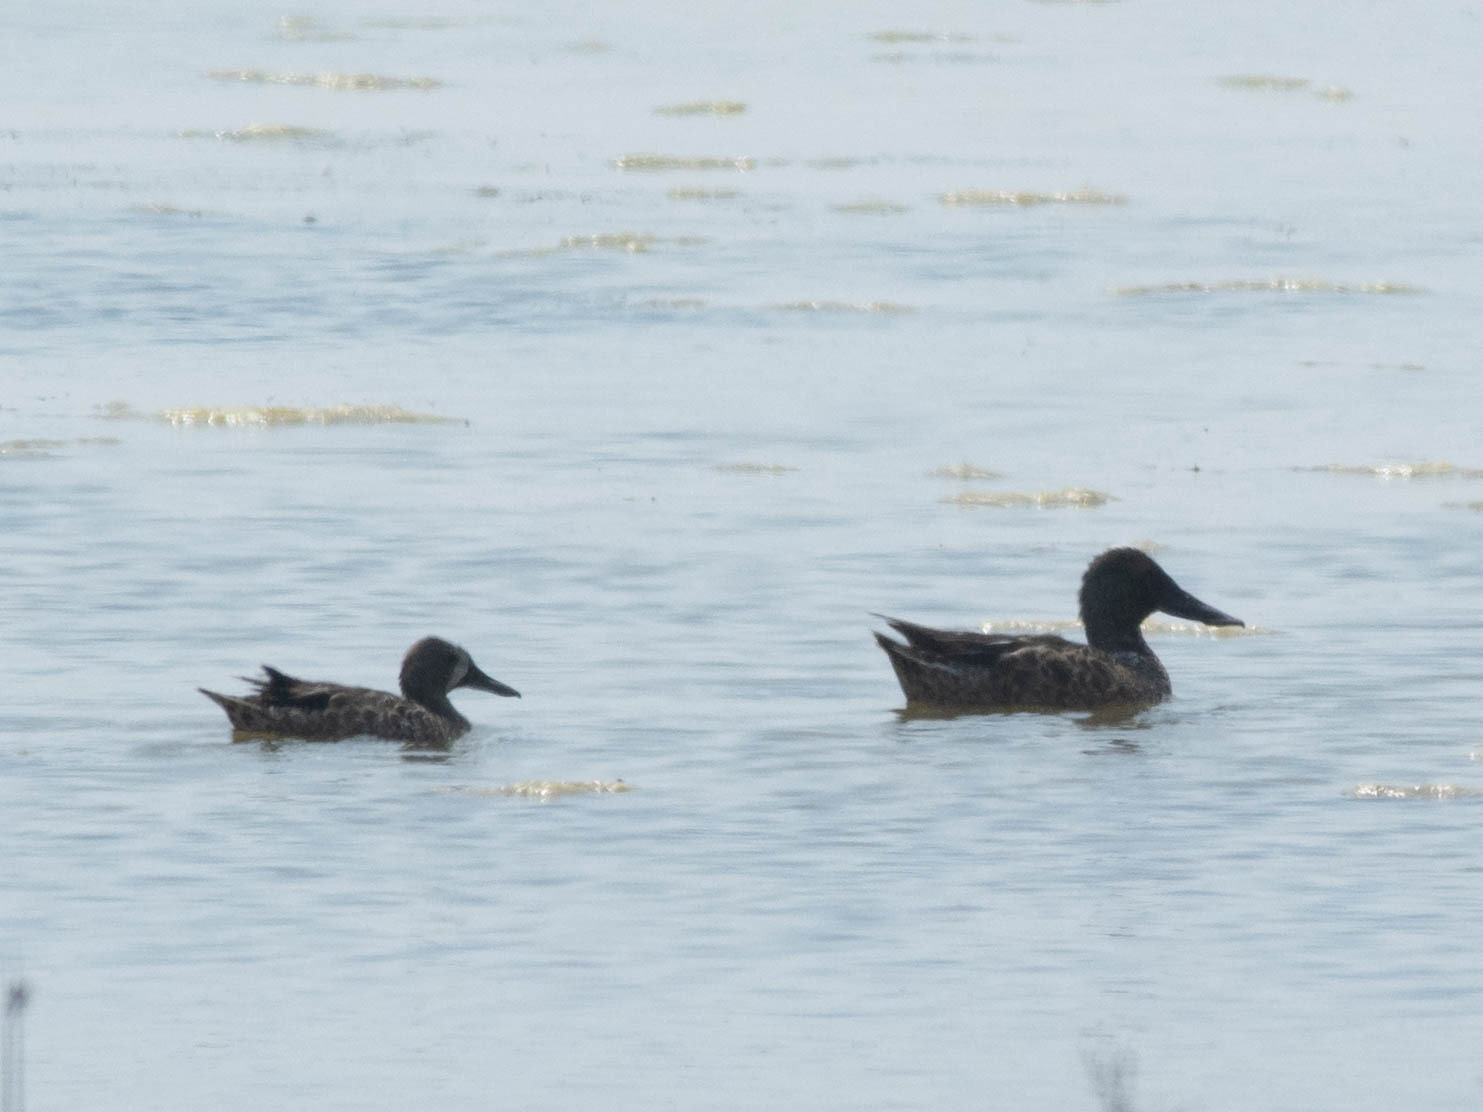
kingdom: Animalia
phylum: Chordata
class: Aves
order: Anseriformes
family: Anatidae
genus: Spatula
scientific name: Spatula clypeata
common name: Northern shoveler
